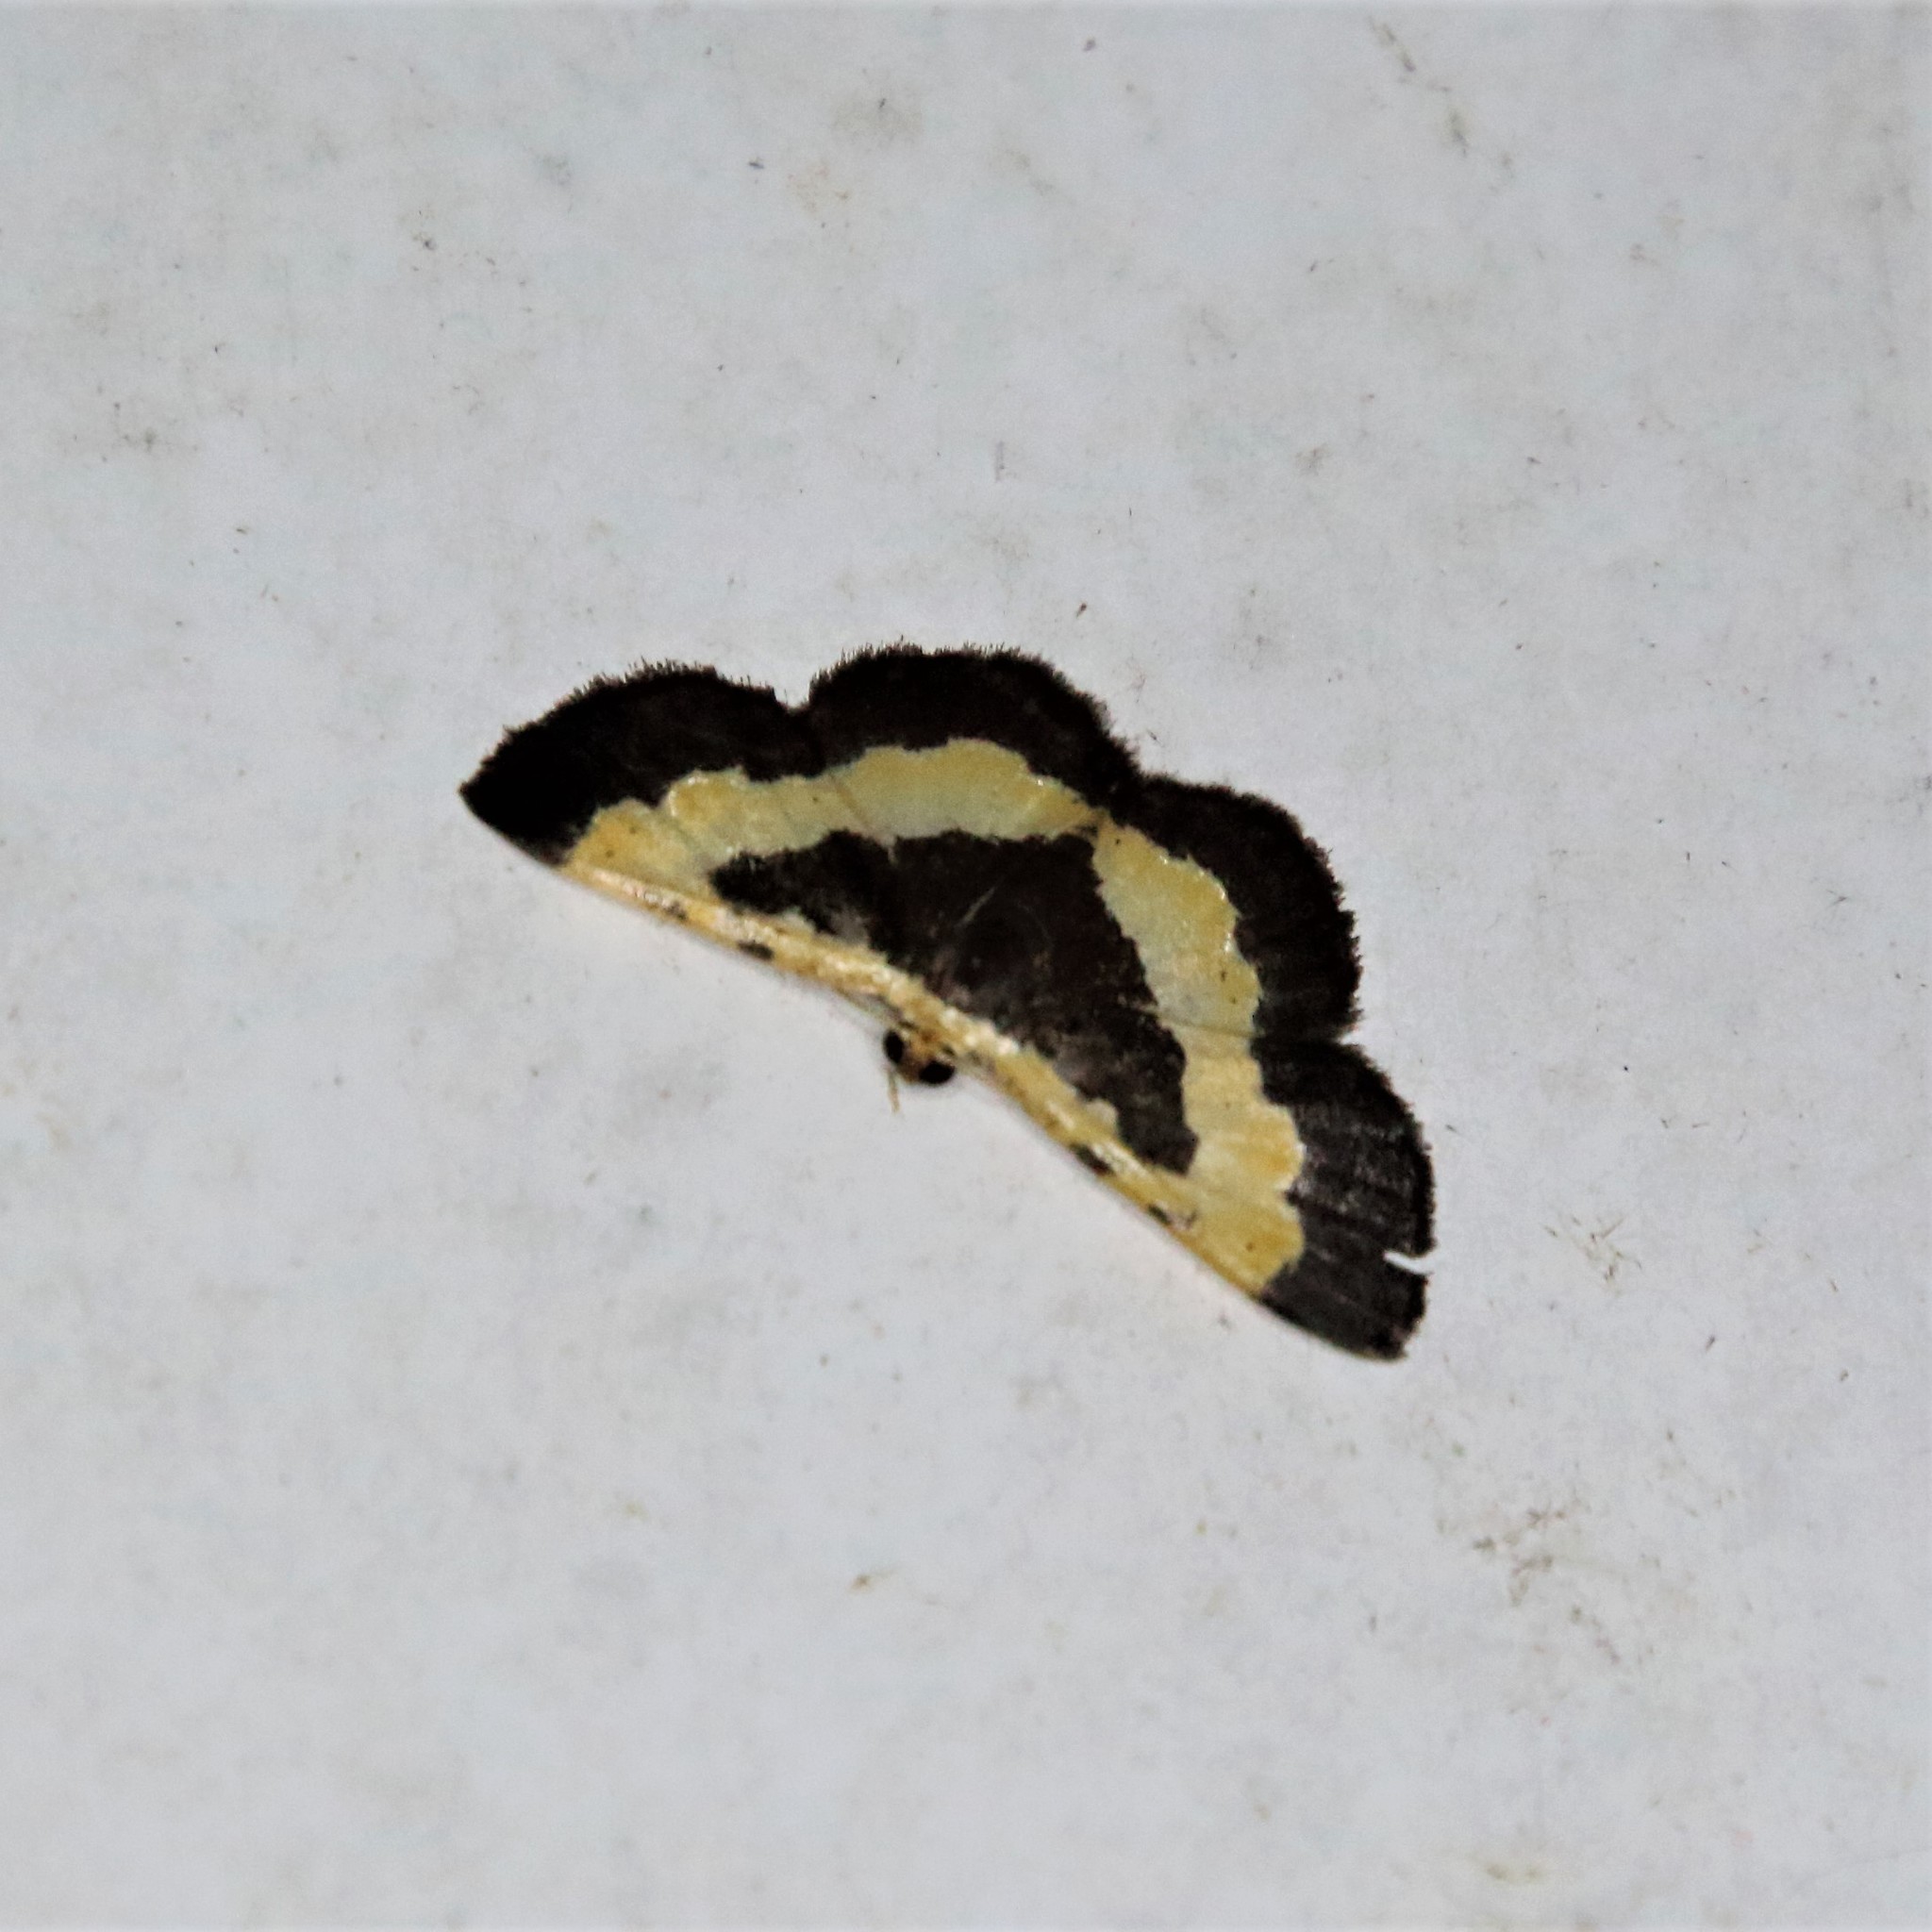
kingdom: Animalia
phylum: Arthropoda
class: Insecta
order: Lepidoptera
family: Geometridae
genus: Peratophyga
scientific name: Peratophyga trigonata
